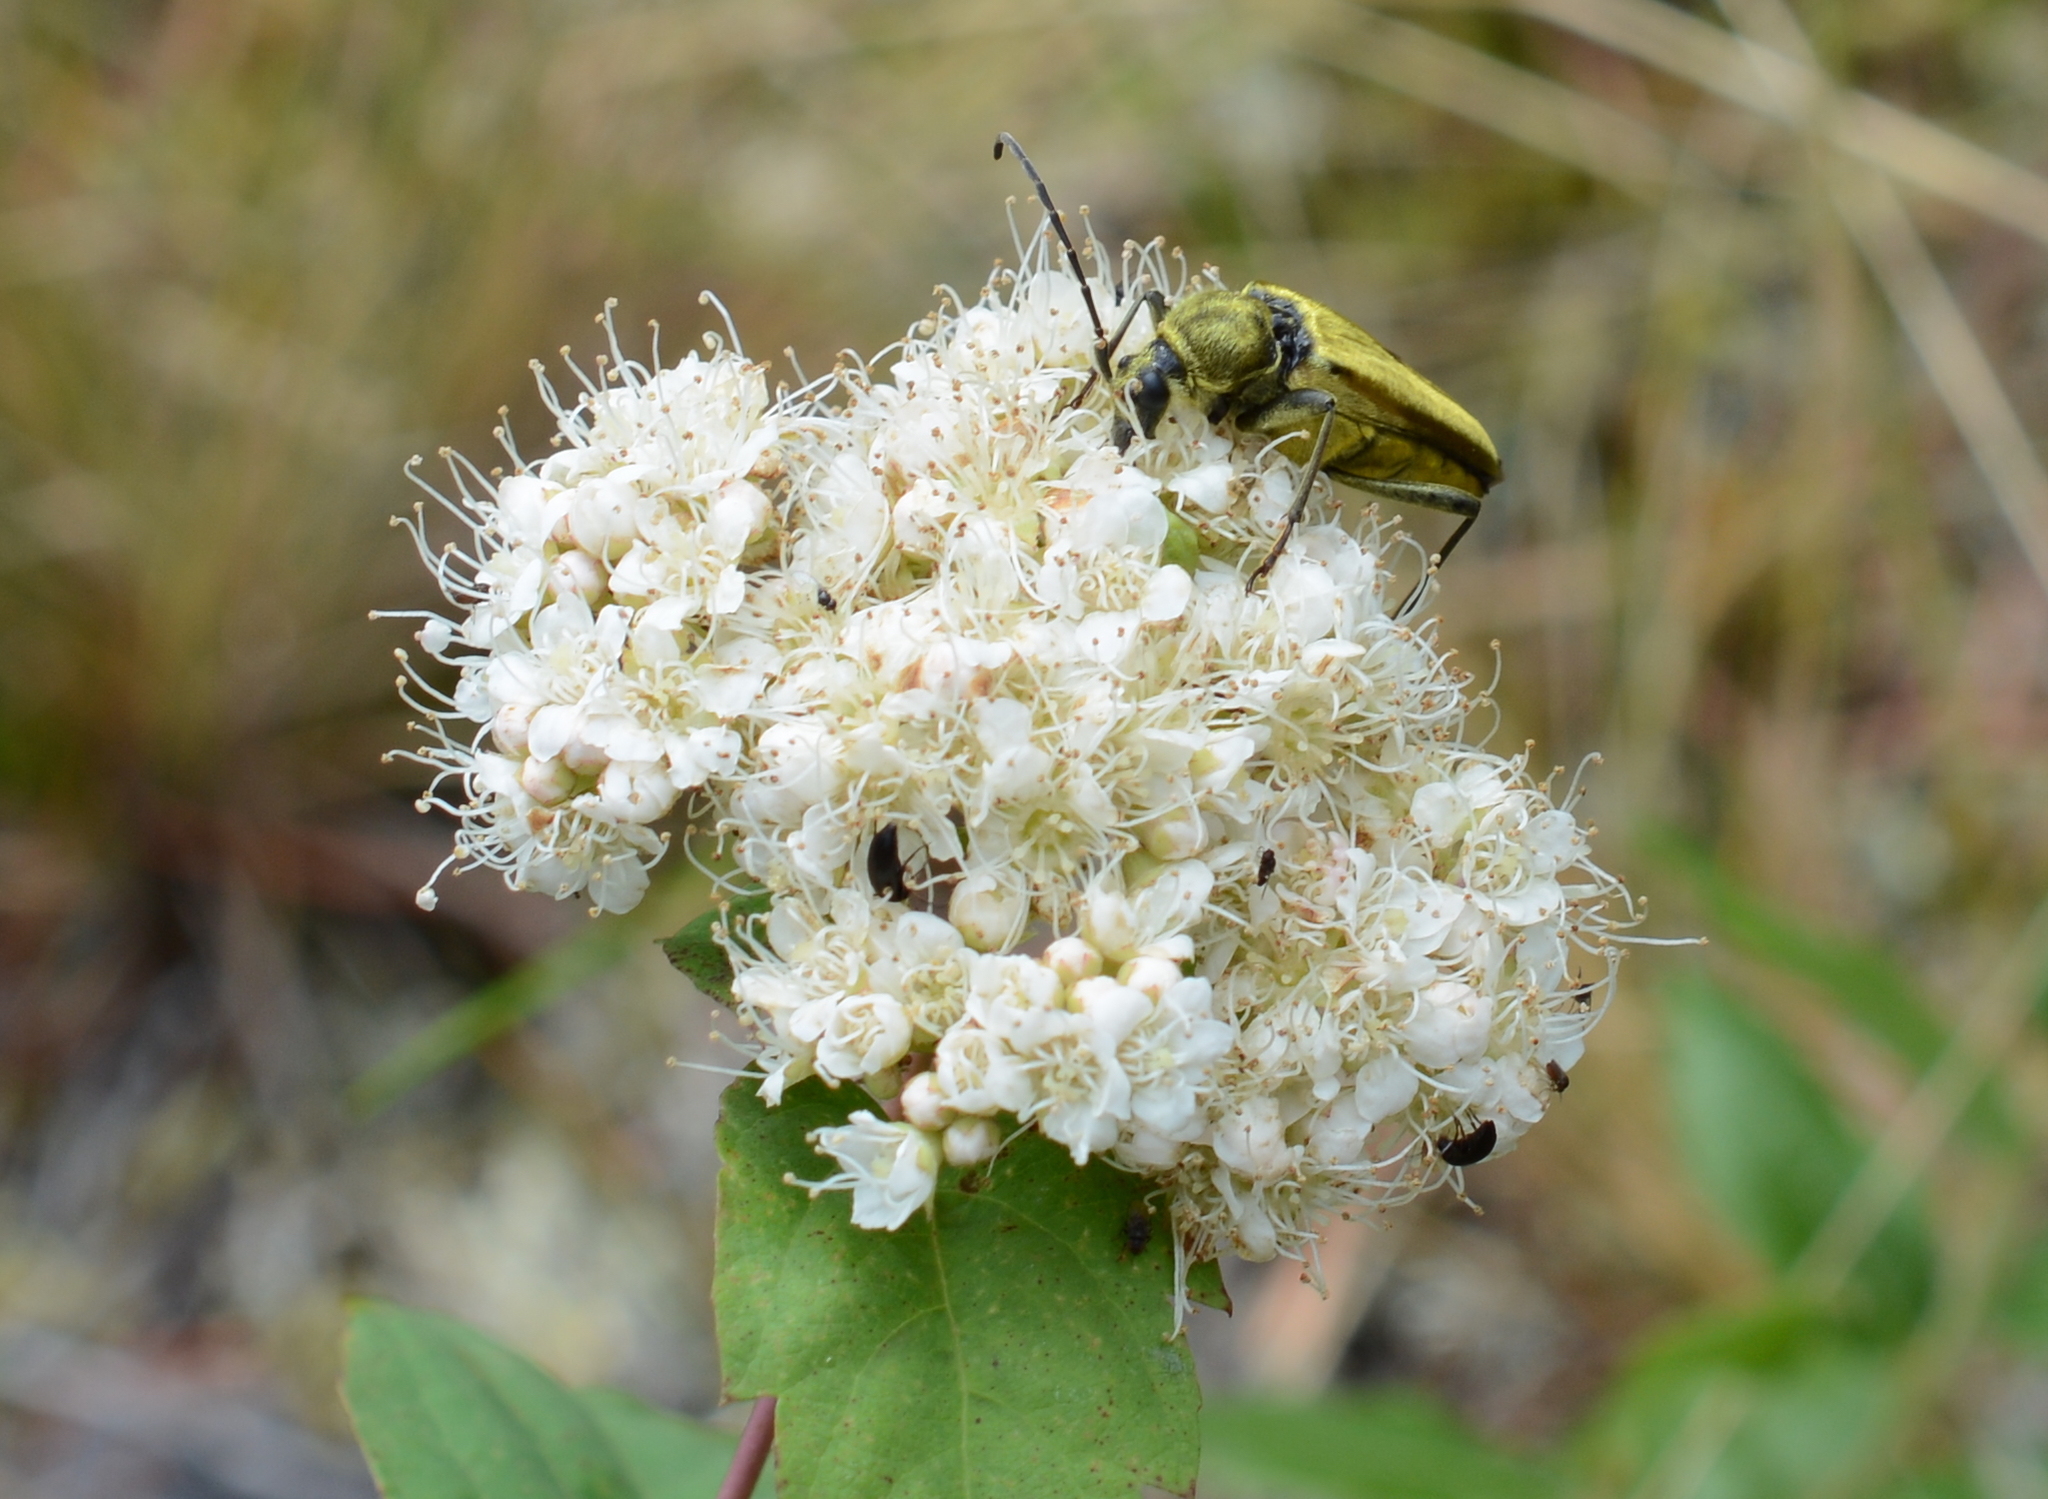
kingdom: Plantae
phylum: Tracheophyta
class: Magnoliopsida
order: Rosales
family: Rosaceae
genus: Spiraea
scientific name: Spiraea lucida
